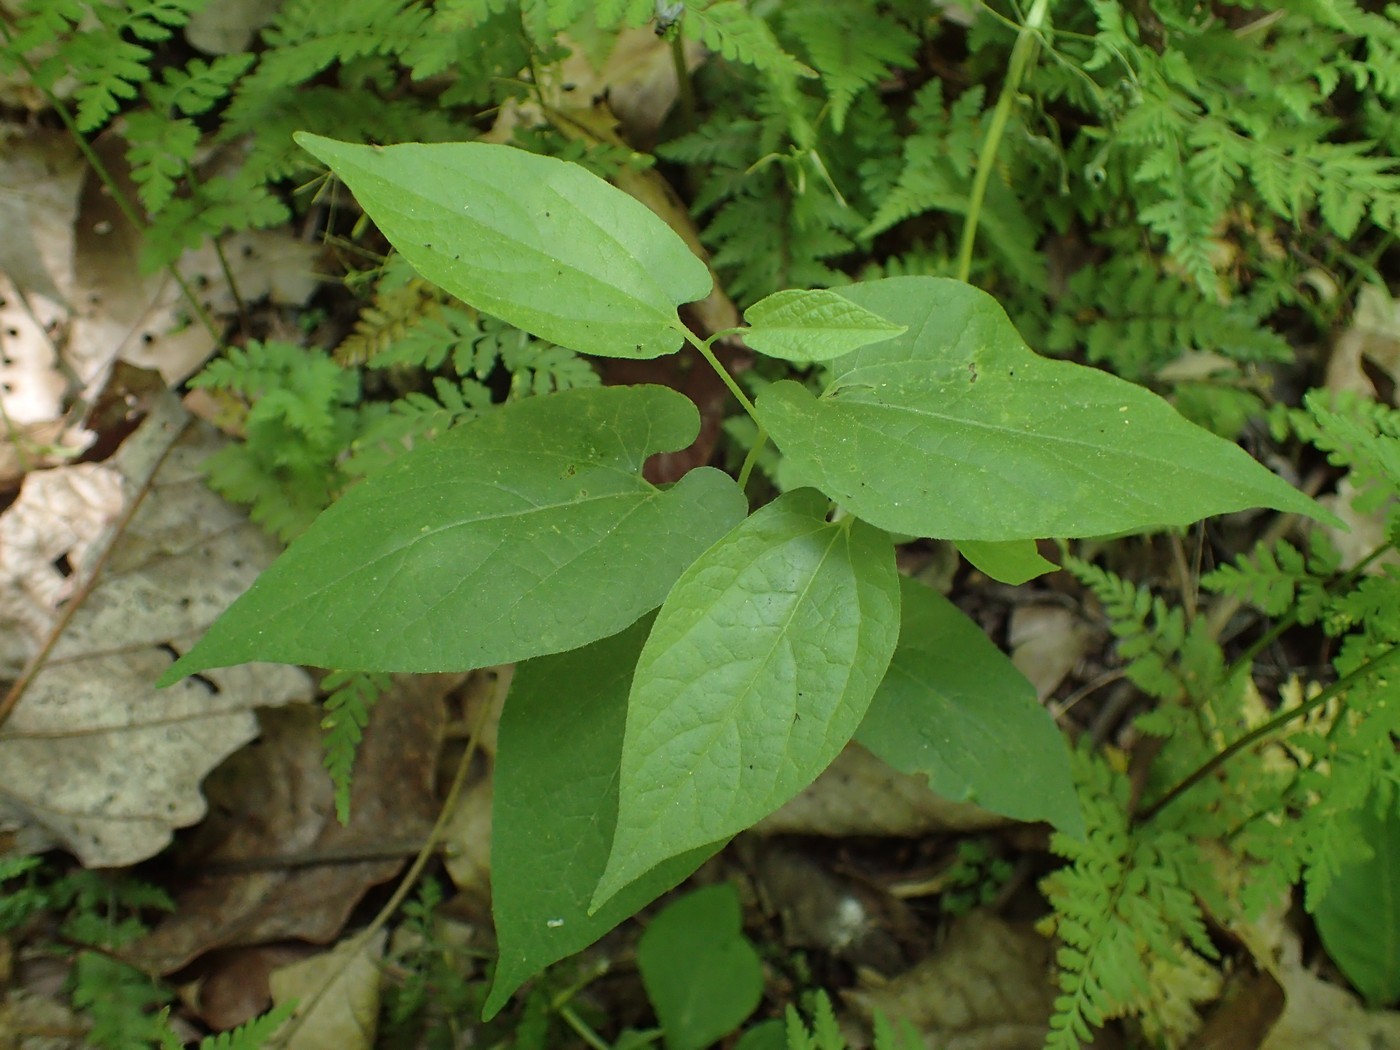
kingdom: Plantae
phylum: Tracheophyta
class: Magnoliopsida
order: Piperales
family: Aristolochiaceae
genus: Endodeca
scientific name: Endodeca serpentaria
